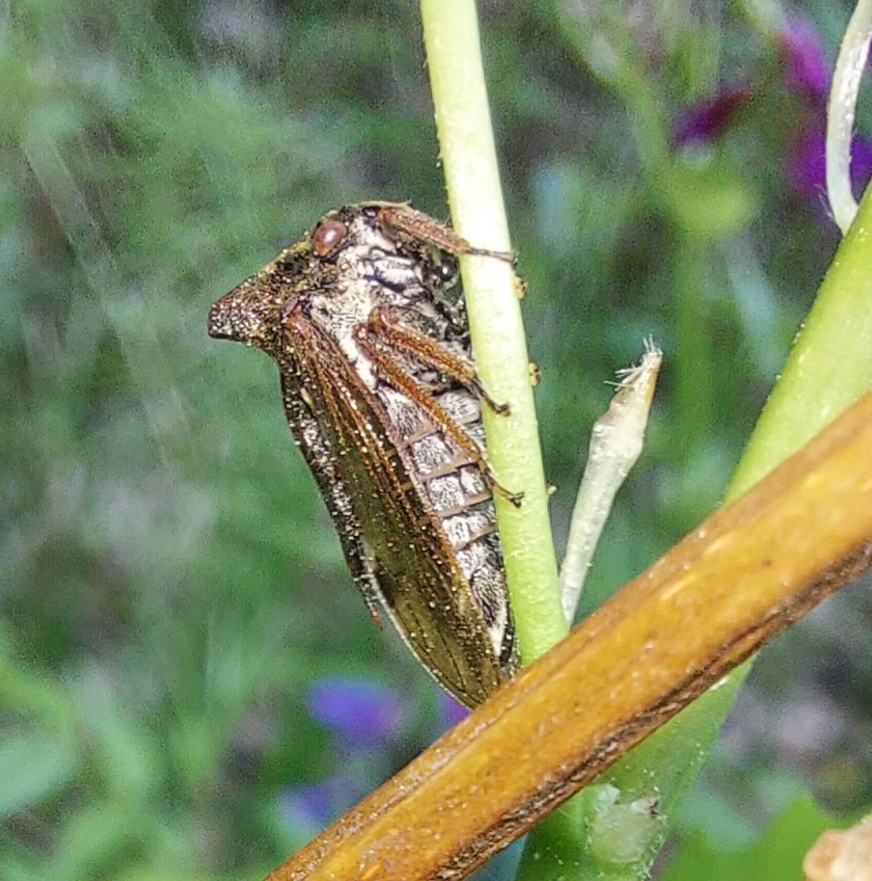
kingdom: Animalia
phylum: Arthropoda
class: Insecta
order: Hemiptera
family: Membracidae
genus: Centrotus
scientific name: Centrotus cornuta
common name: Treehopper
